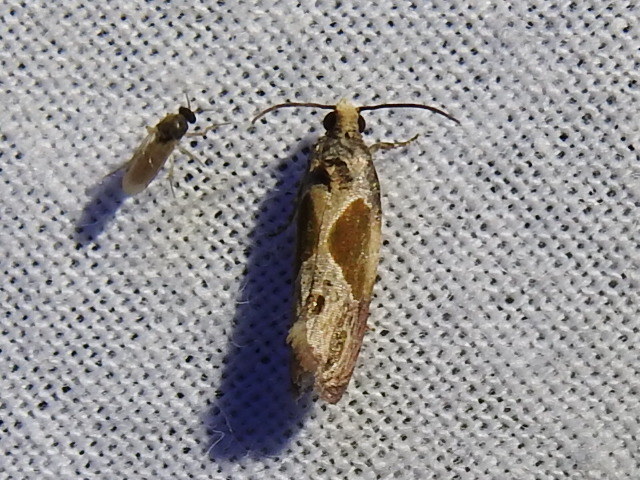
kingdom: Animalia
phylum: Arthropoda
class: Insecta
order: Lepidoptera
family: Tortricidae
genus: Eumarozia
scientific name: Eumarozia malachitana
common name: Sculptured moth
